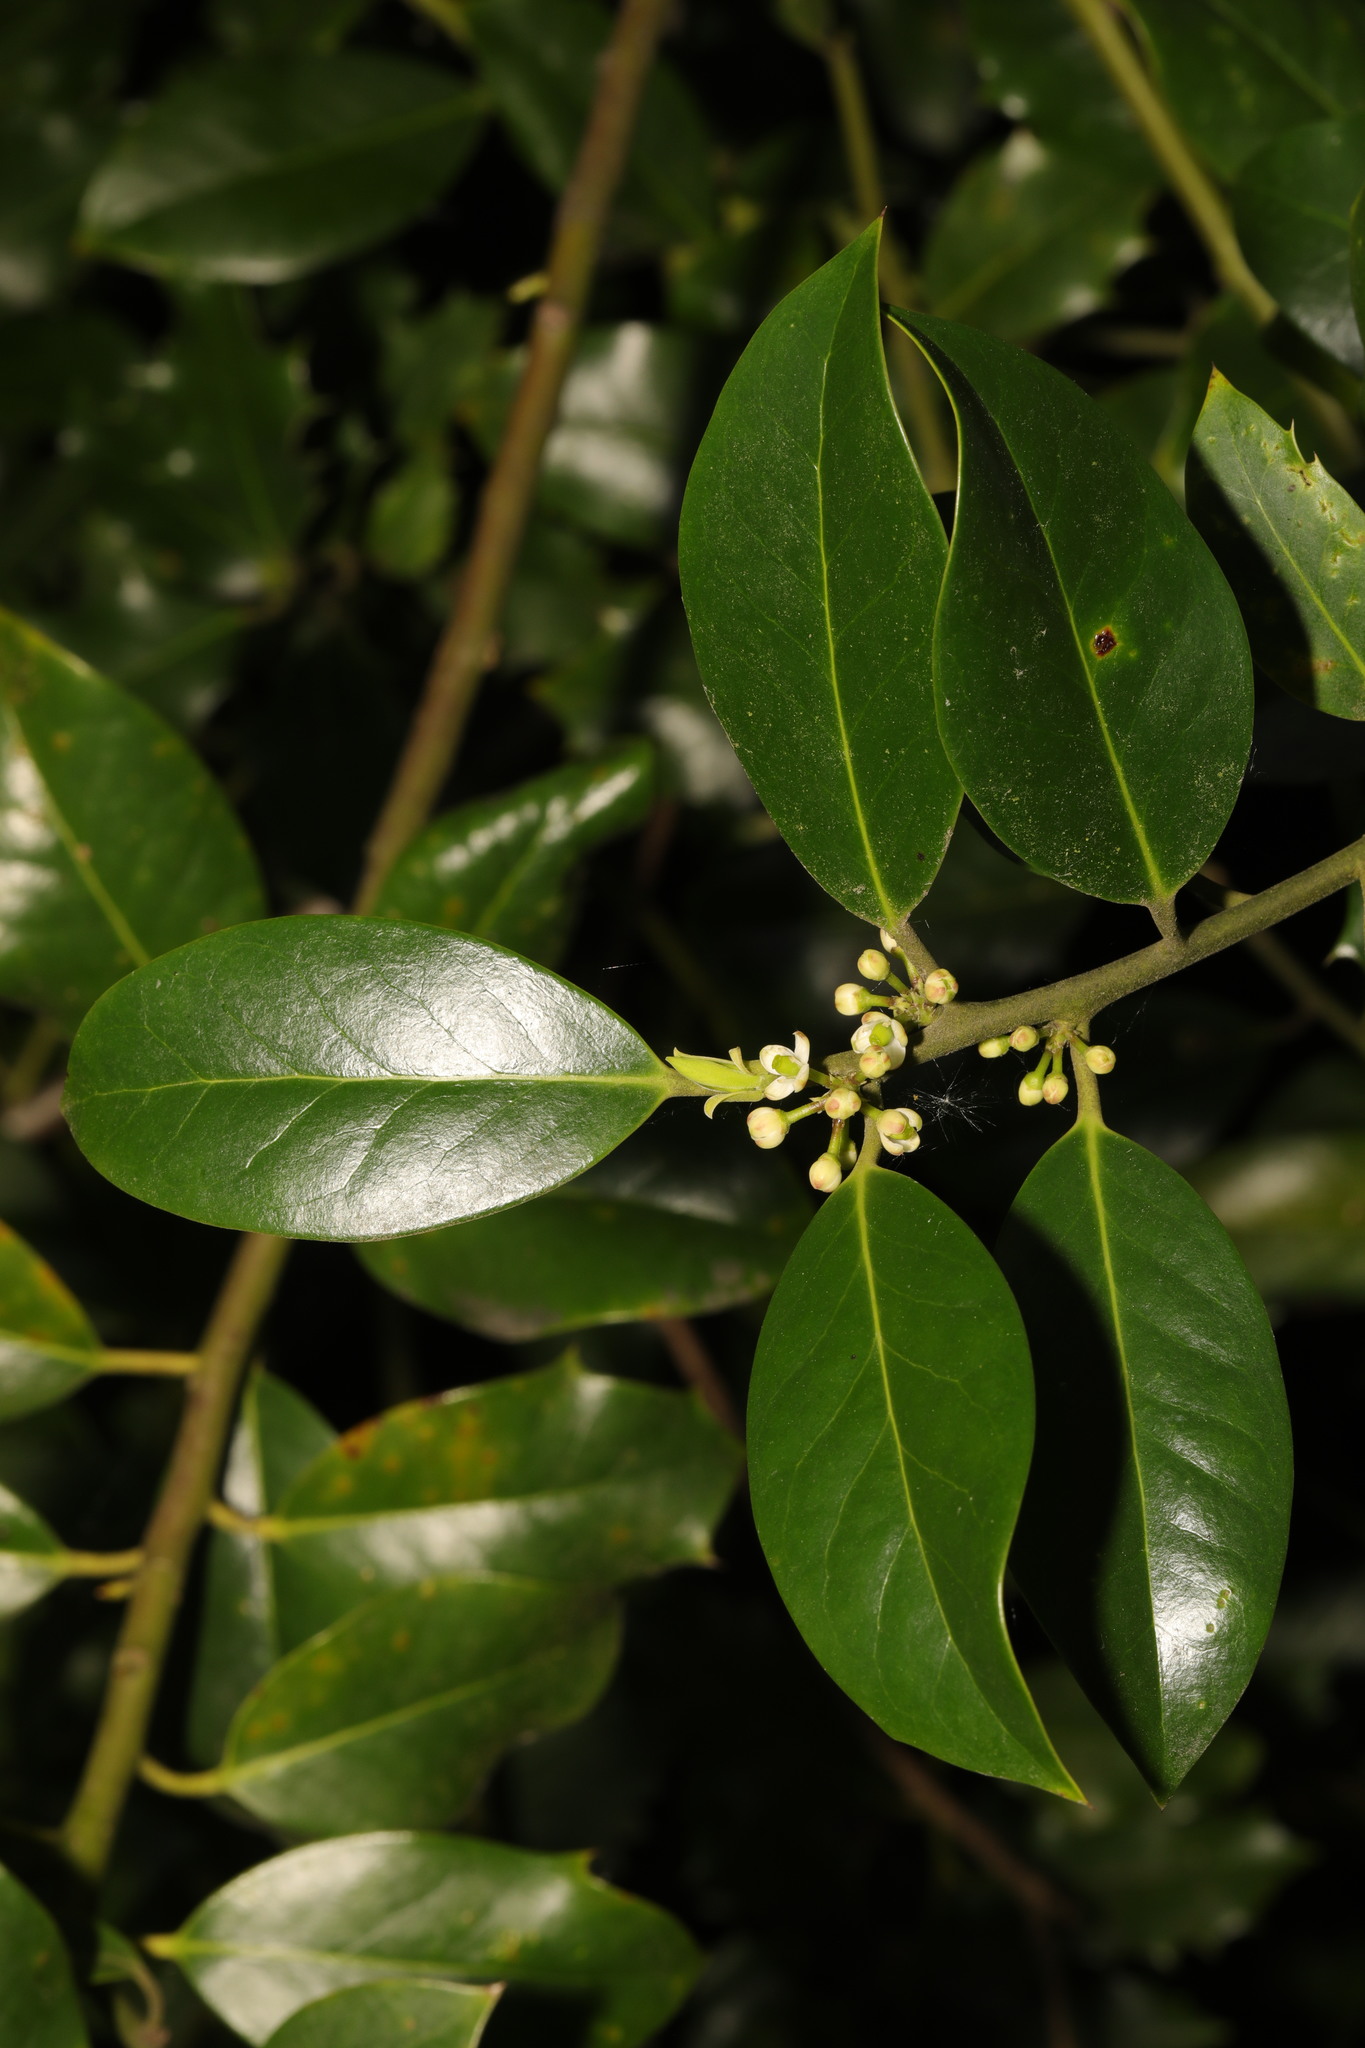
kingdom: Plantae
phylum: Tracheophyta
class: Magnoliopsida
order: Aquifoliales
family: Aquifoliaceae
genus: Ilex
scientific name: Ilex aquifolium
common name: English holly
